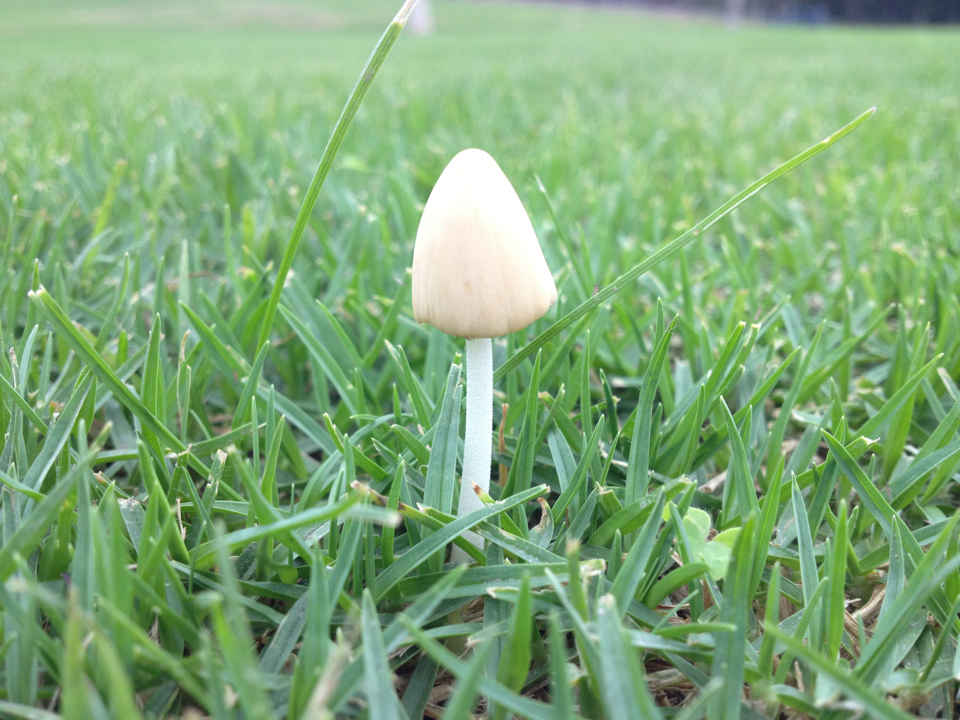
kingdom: Fungi
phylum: Basidiomycota
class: Agaricomycetes
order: Agaricales
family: Bolbitiaceae
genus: Conocybe
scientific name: Conocybe apala
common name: Milky conecap
